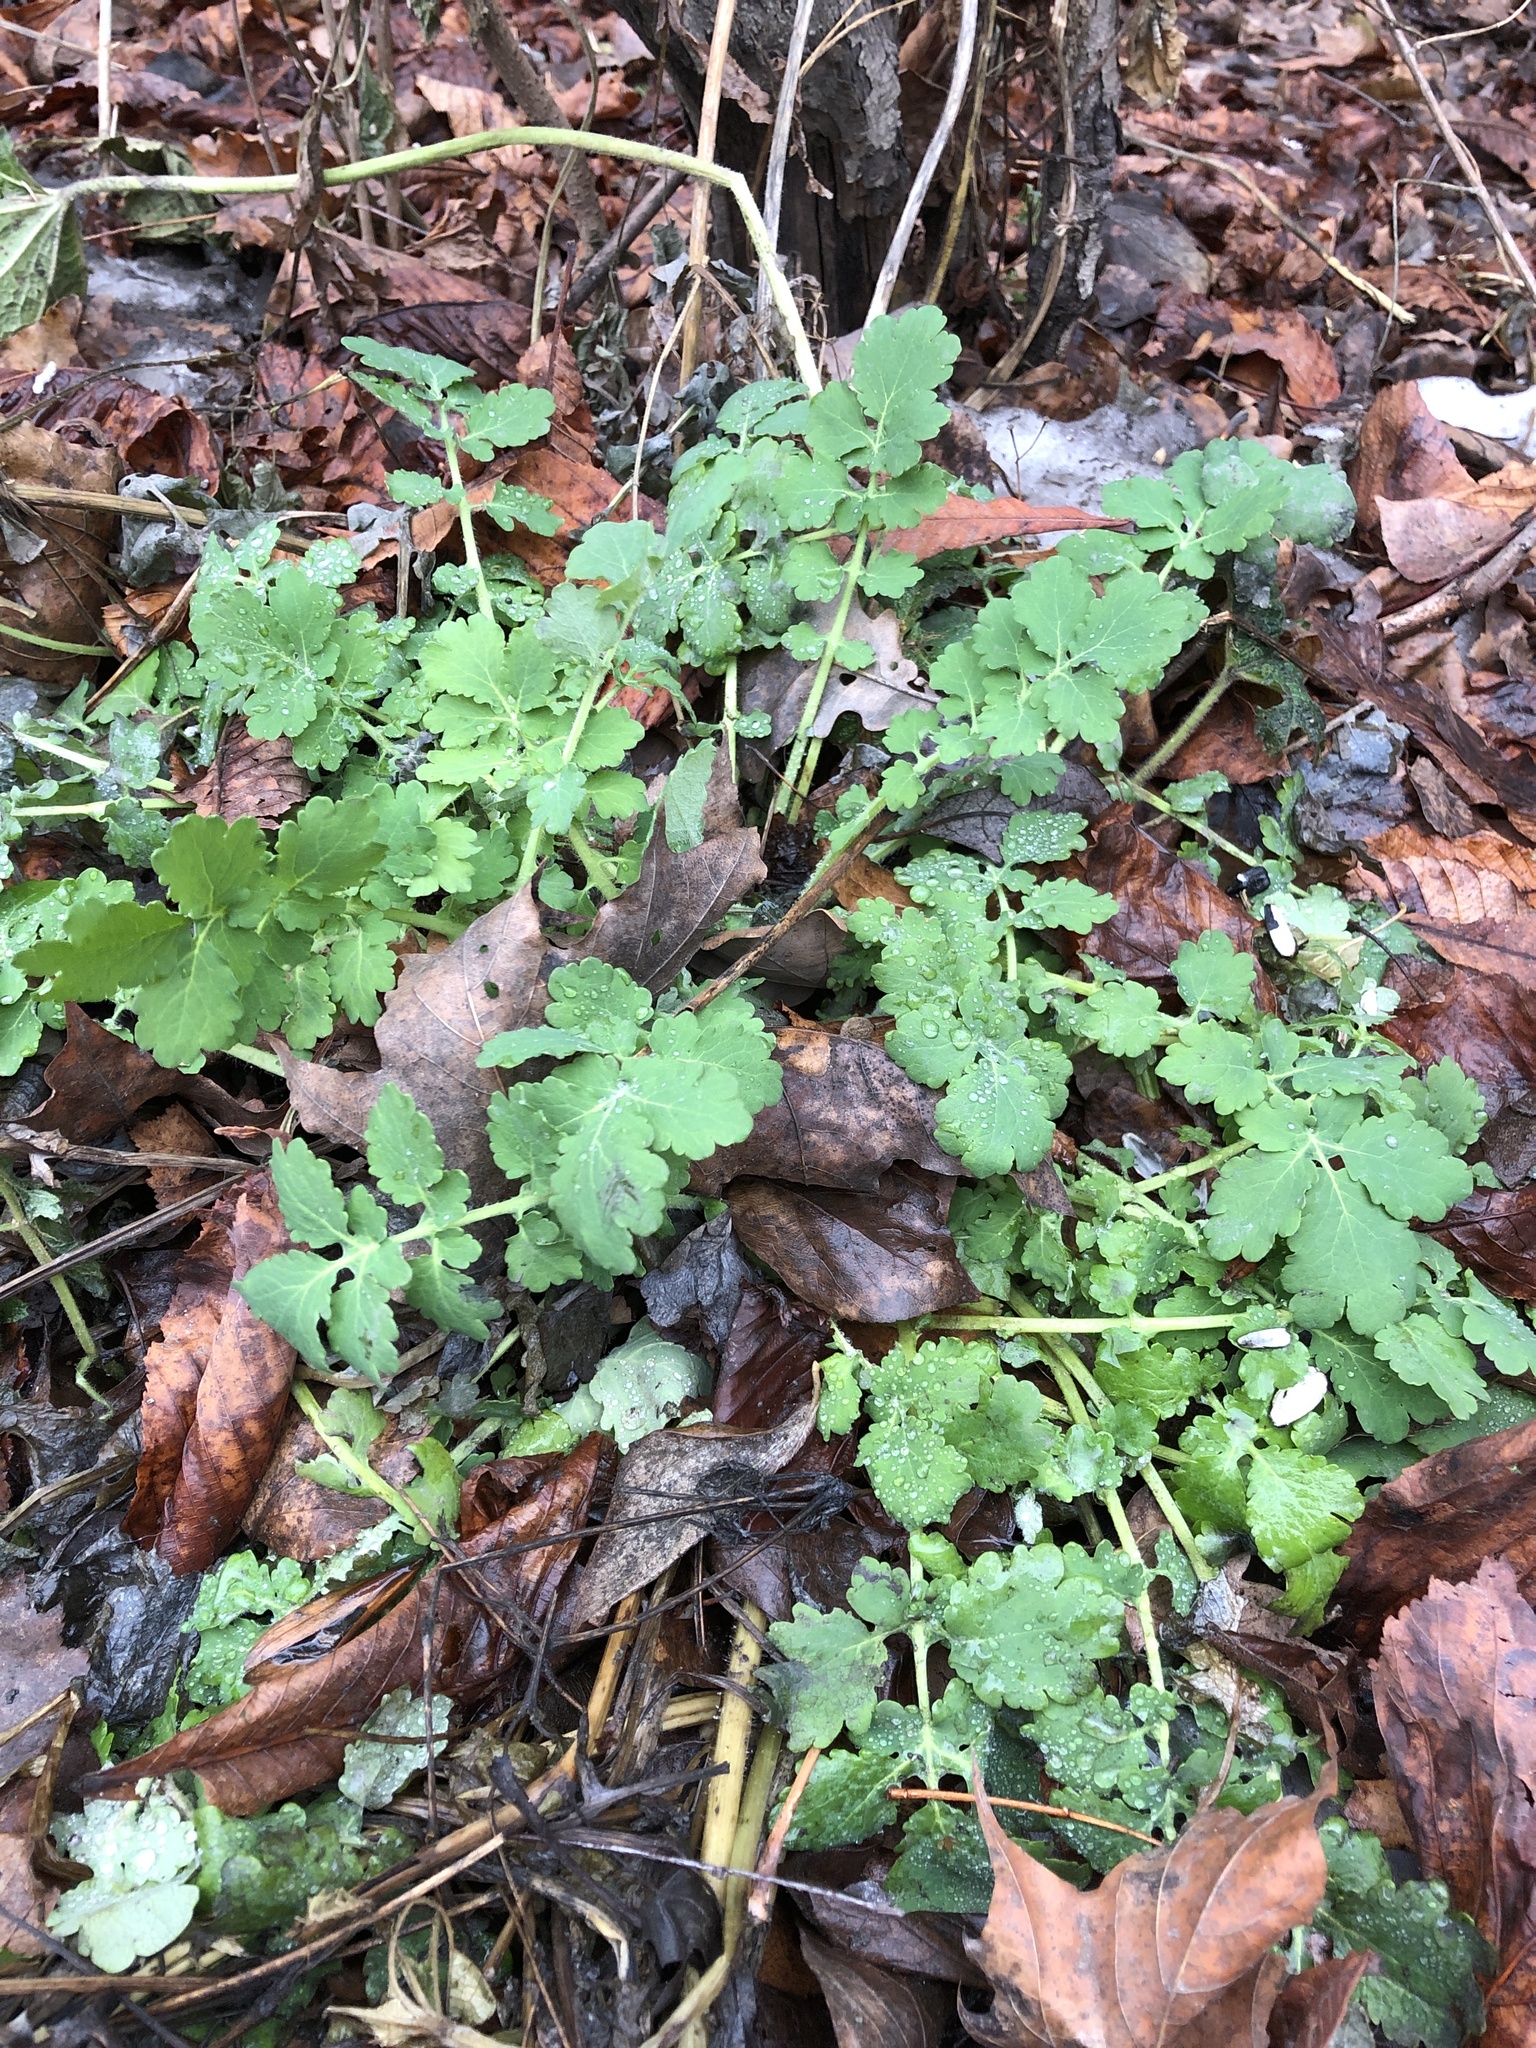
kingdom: Plantae
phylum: Tracheophyta
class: Magnoliopsida
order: Ranunculales
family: Papaveraceae
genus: Chelidonium
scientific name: Chelidonium majus
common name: Greater celandine
